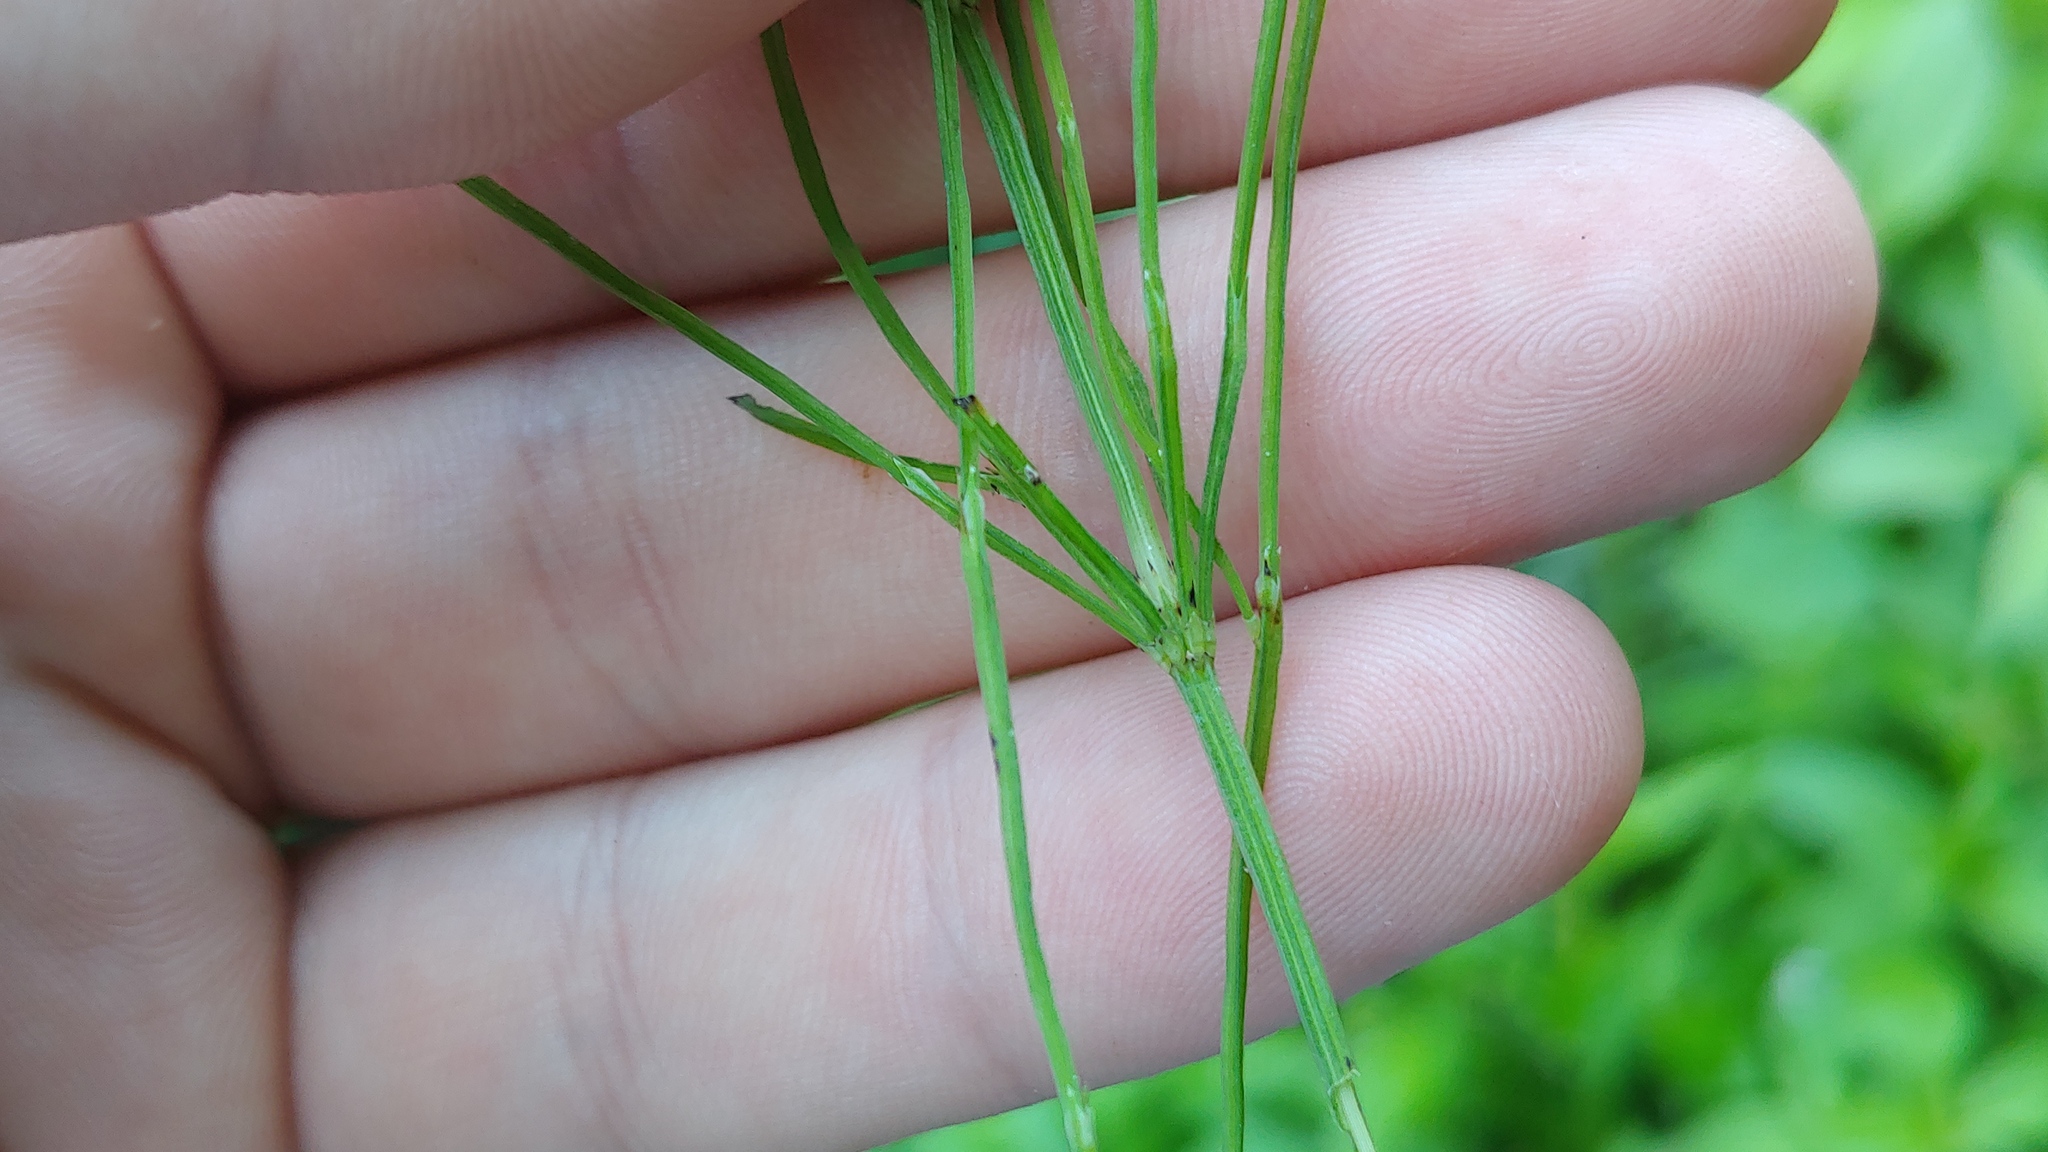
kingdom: Plantae
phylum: Tracheophyta
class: Polypodiopsida
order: Equisetales
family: Equisetaceae
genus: Equisetum
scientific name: Equisetum arvense
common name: Field horsetail
